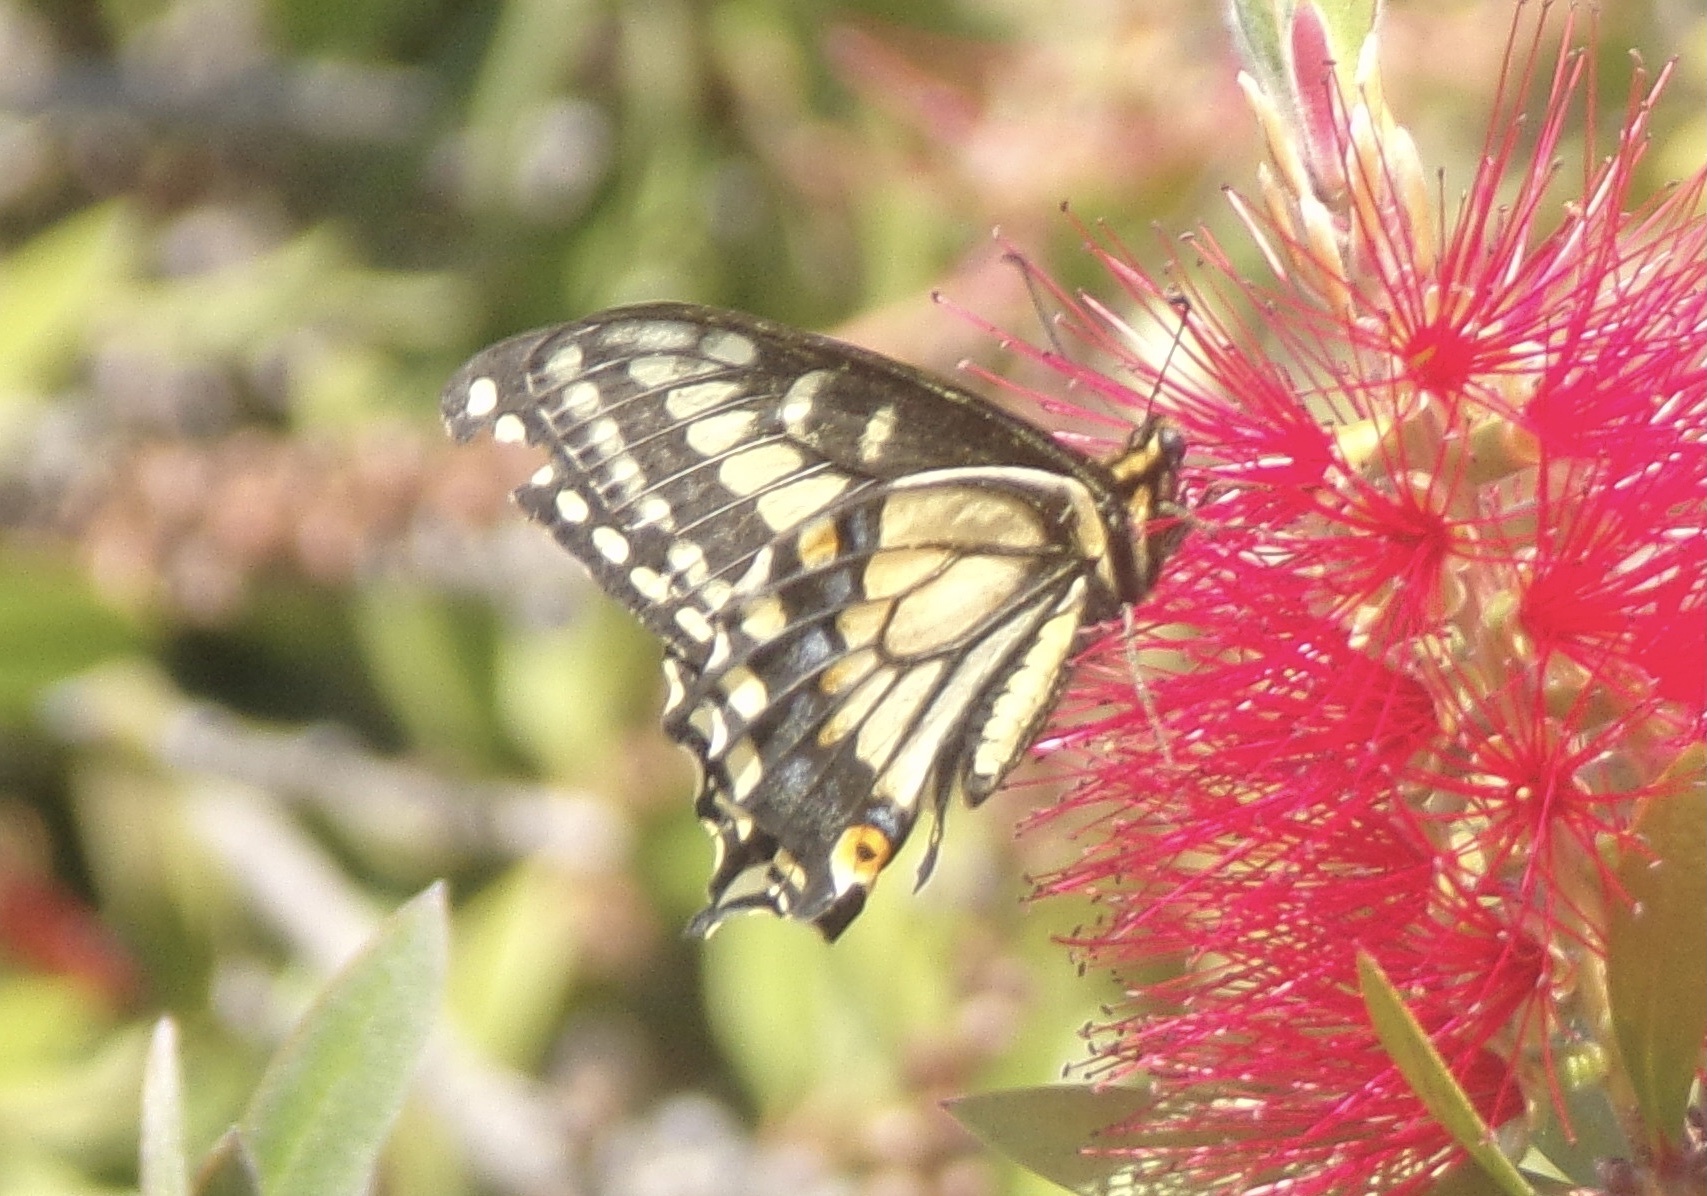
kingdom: Animalia
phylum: Arthropoda
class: Insecta
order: Lepidoptera
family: Papilionidae
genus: Papilio
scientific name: Papilio zelicaon
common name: Anise swallowtail
